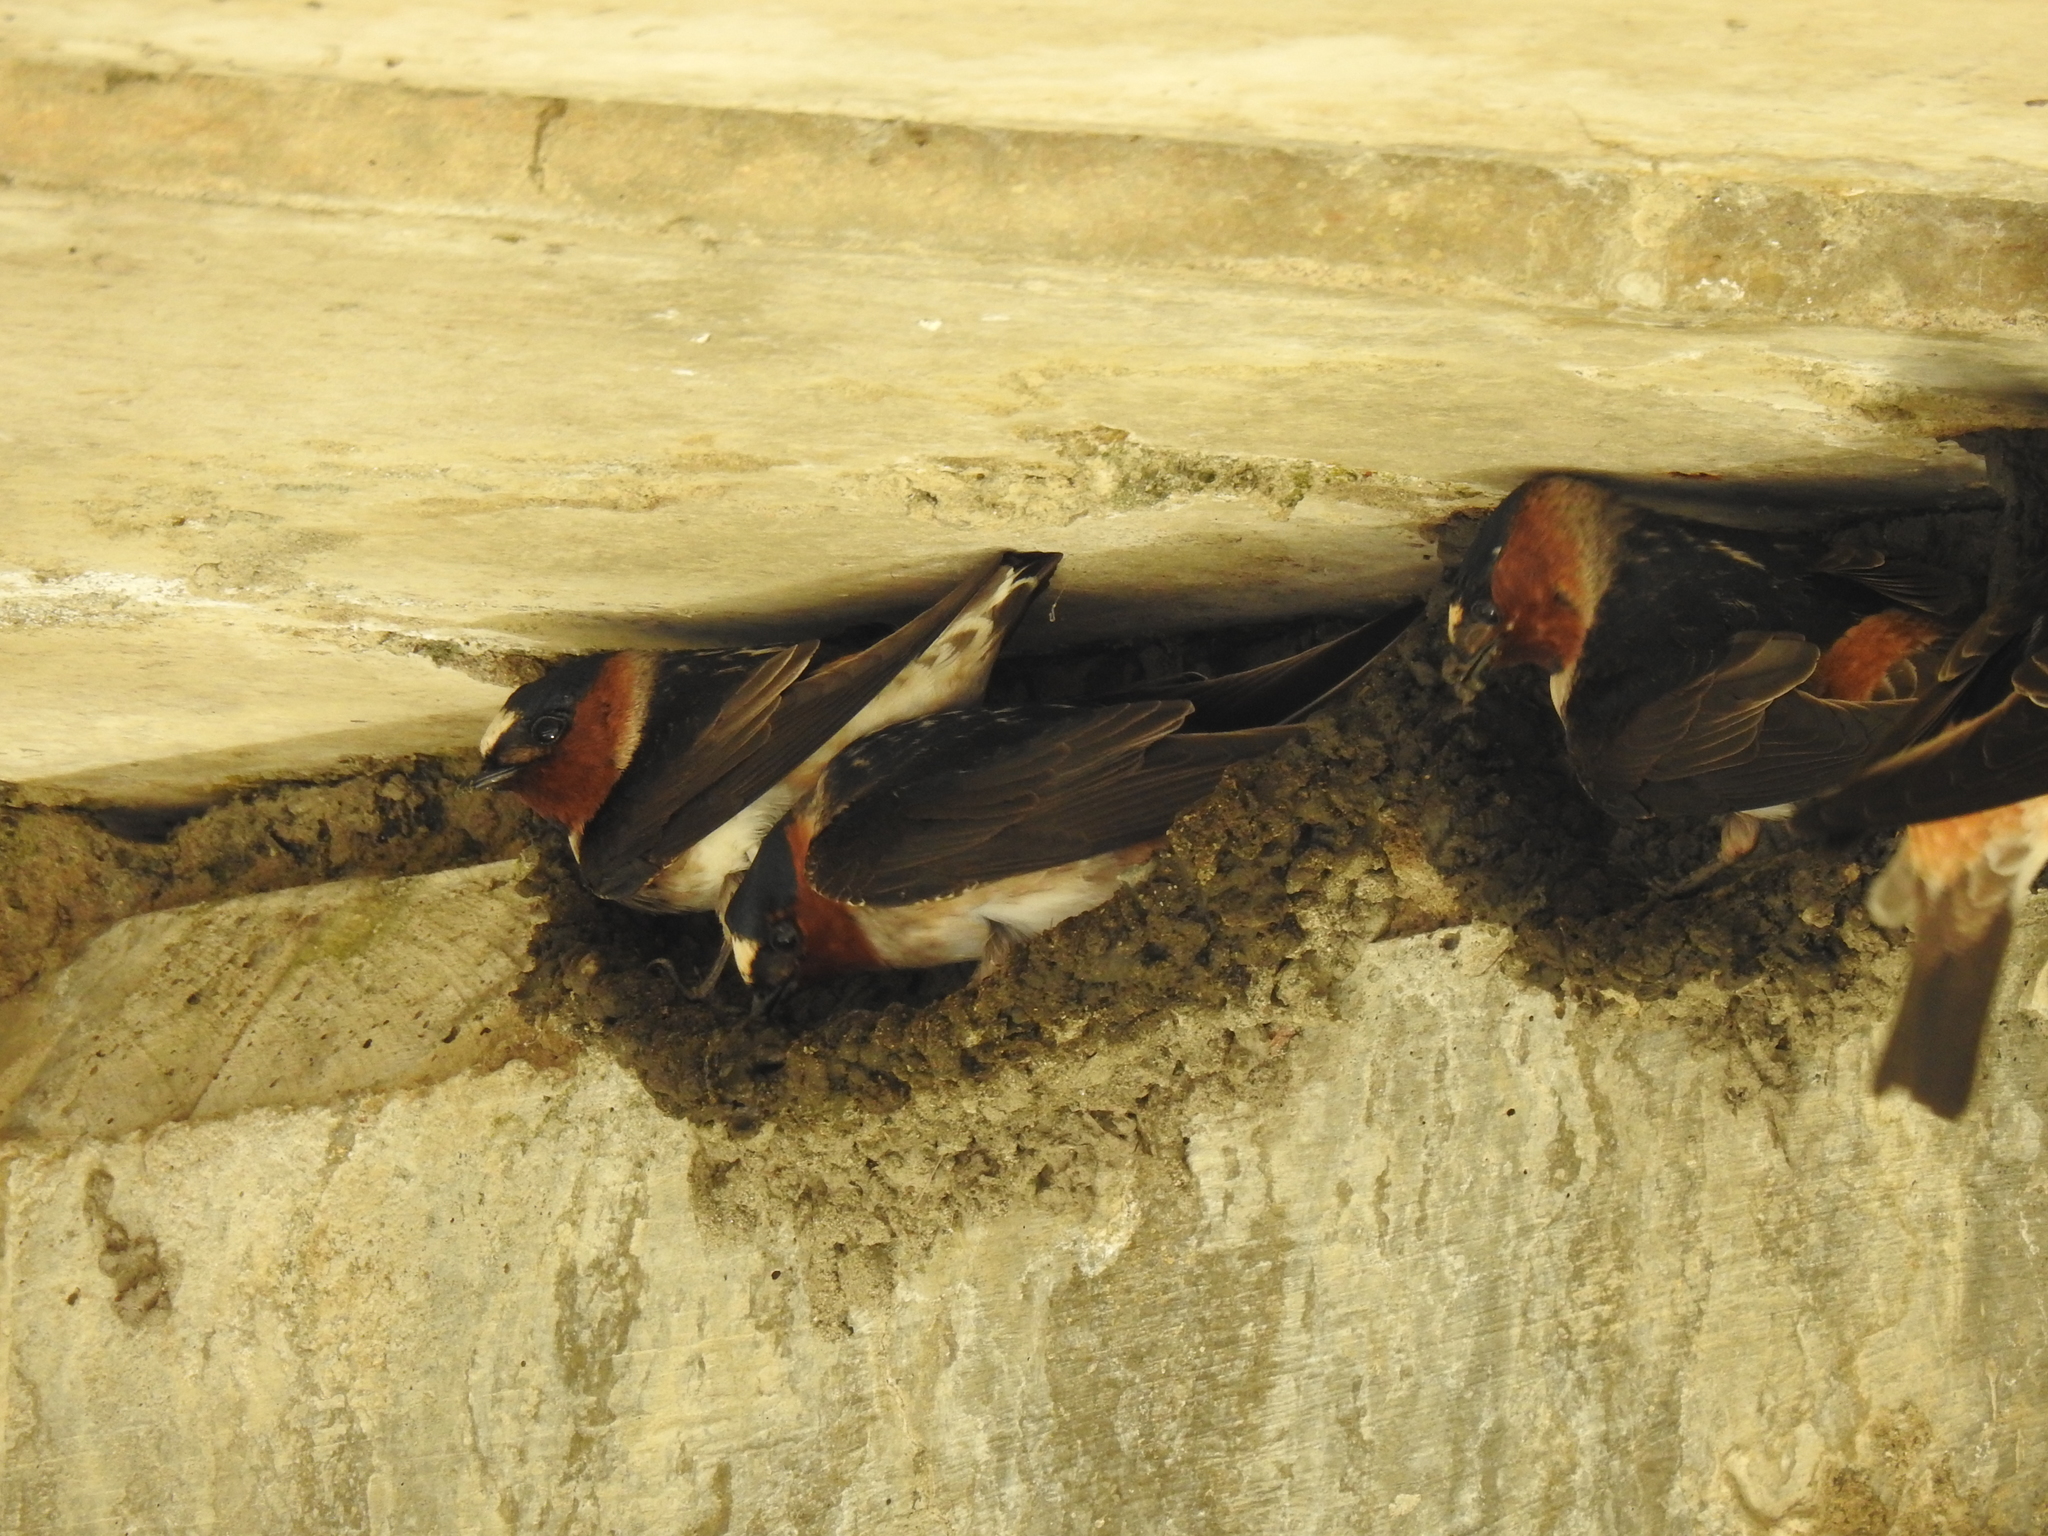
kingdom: Animalia
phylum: Chordata
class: Aves
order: Passeriformes
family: Hirundinidae
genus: Petrochelidon
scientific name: Petrochelidon pyrrhonota
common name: American cliff swallow
